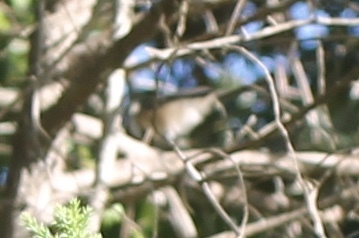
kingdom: Animalia
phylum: Chordata
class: Aves
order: Passeriformes
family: Paridae
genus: Poecile
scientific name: Poecile atricapillus
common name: Black-capped chickadee
